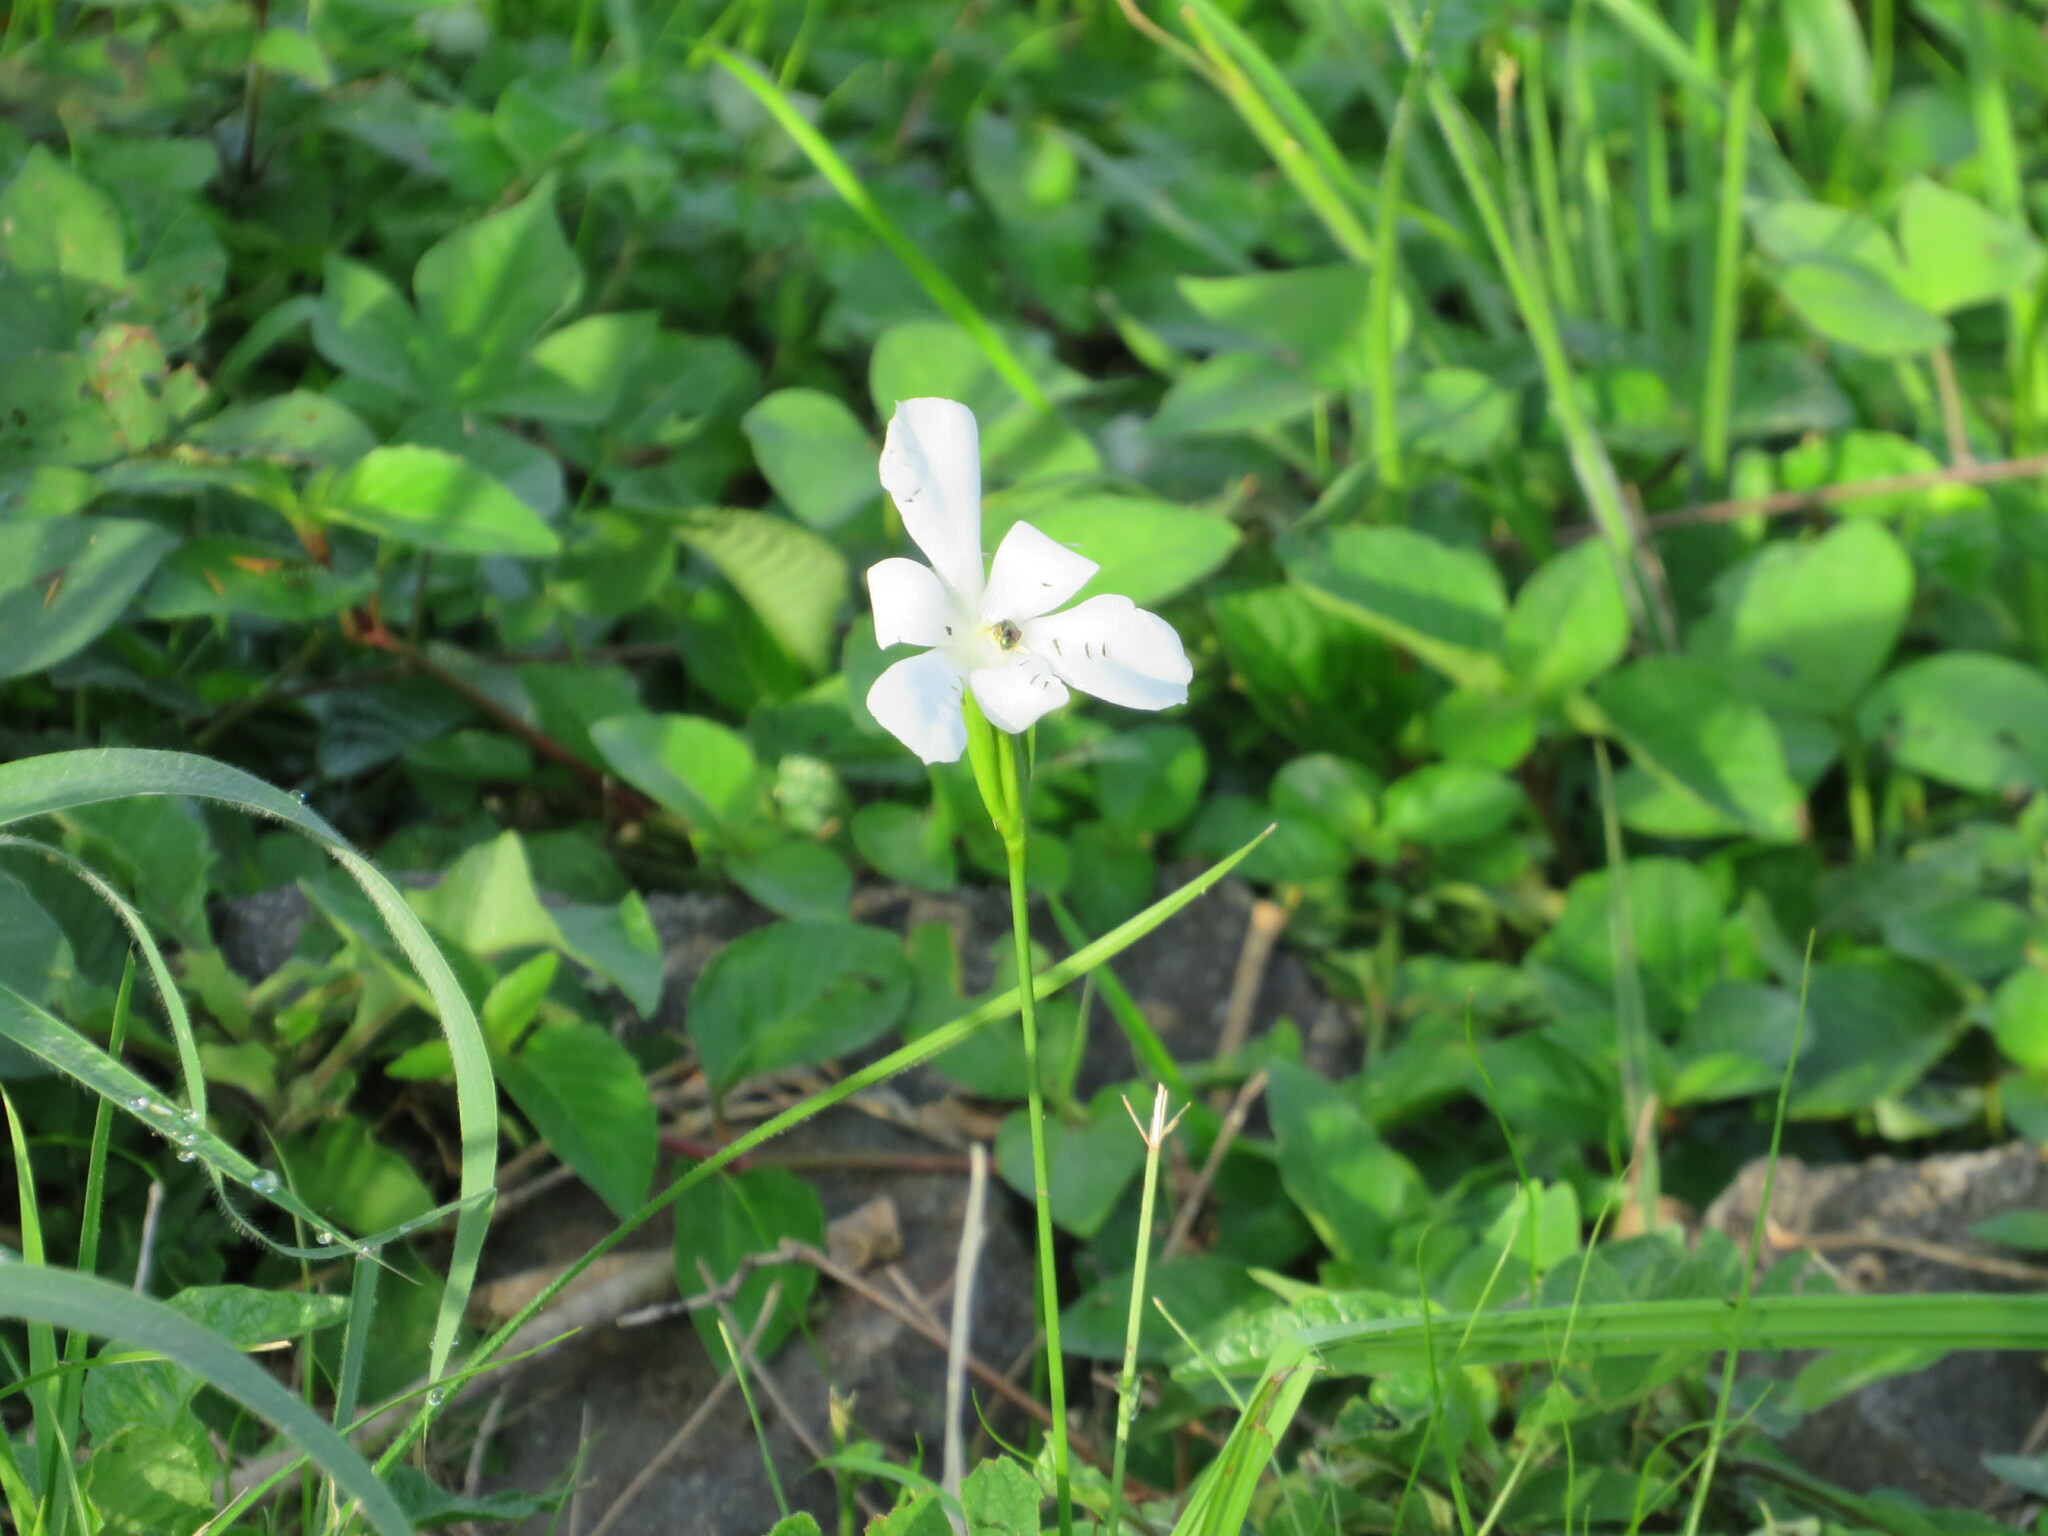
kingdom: Plantae
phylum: Tracheophyta
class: Liliopsida
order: Asparagales
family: Iridaceae
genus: Cipura
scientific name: Cipura campanulata
